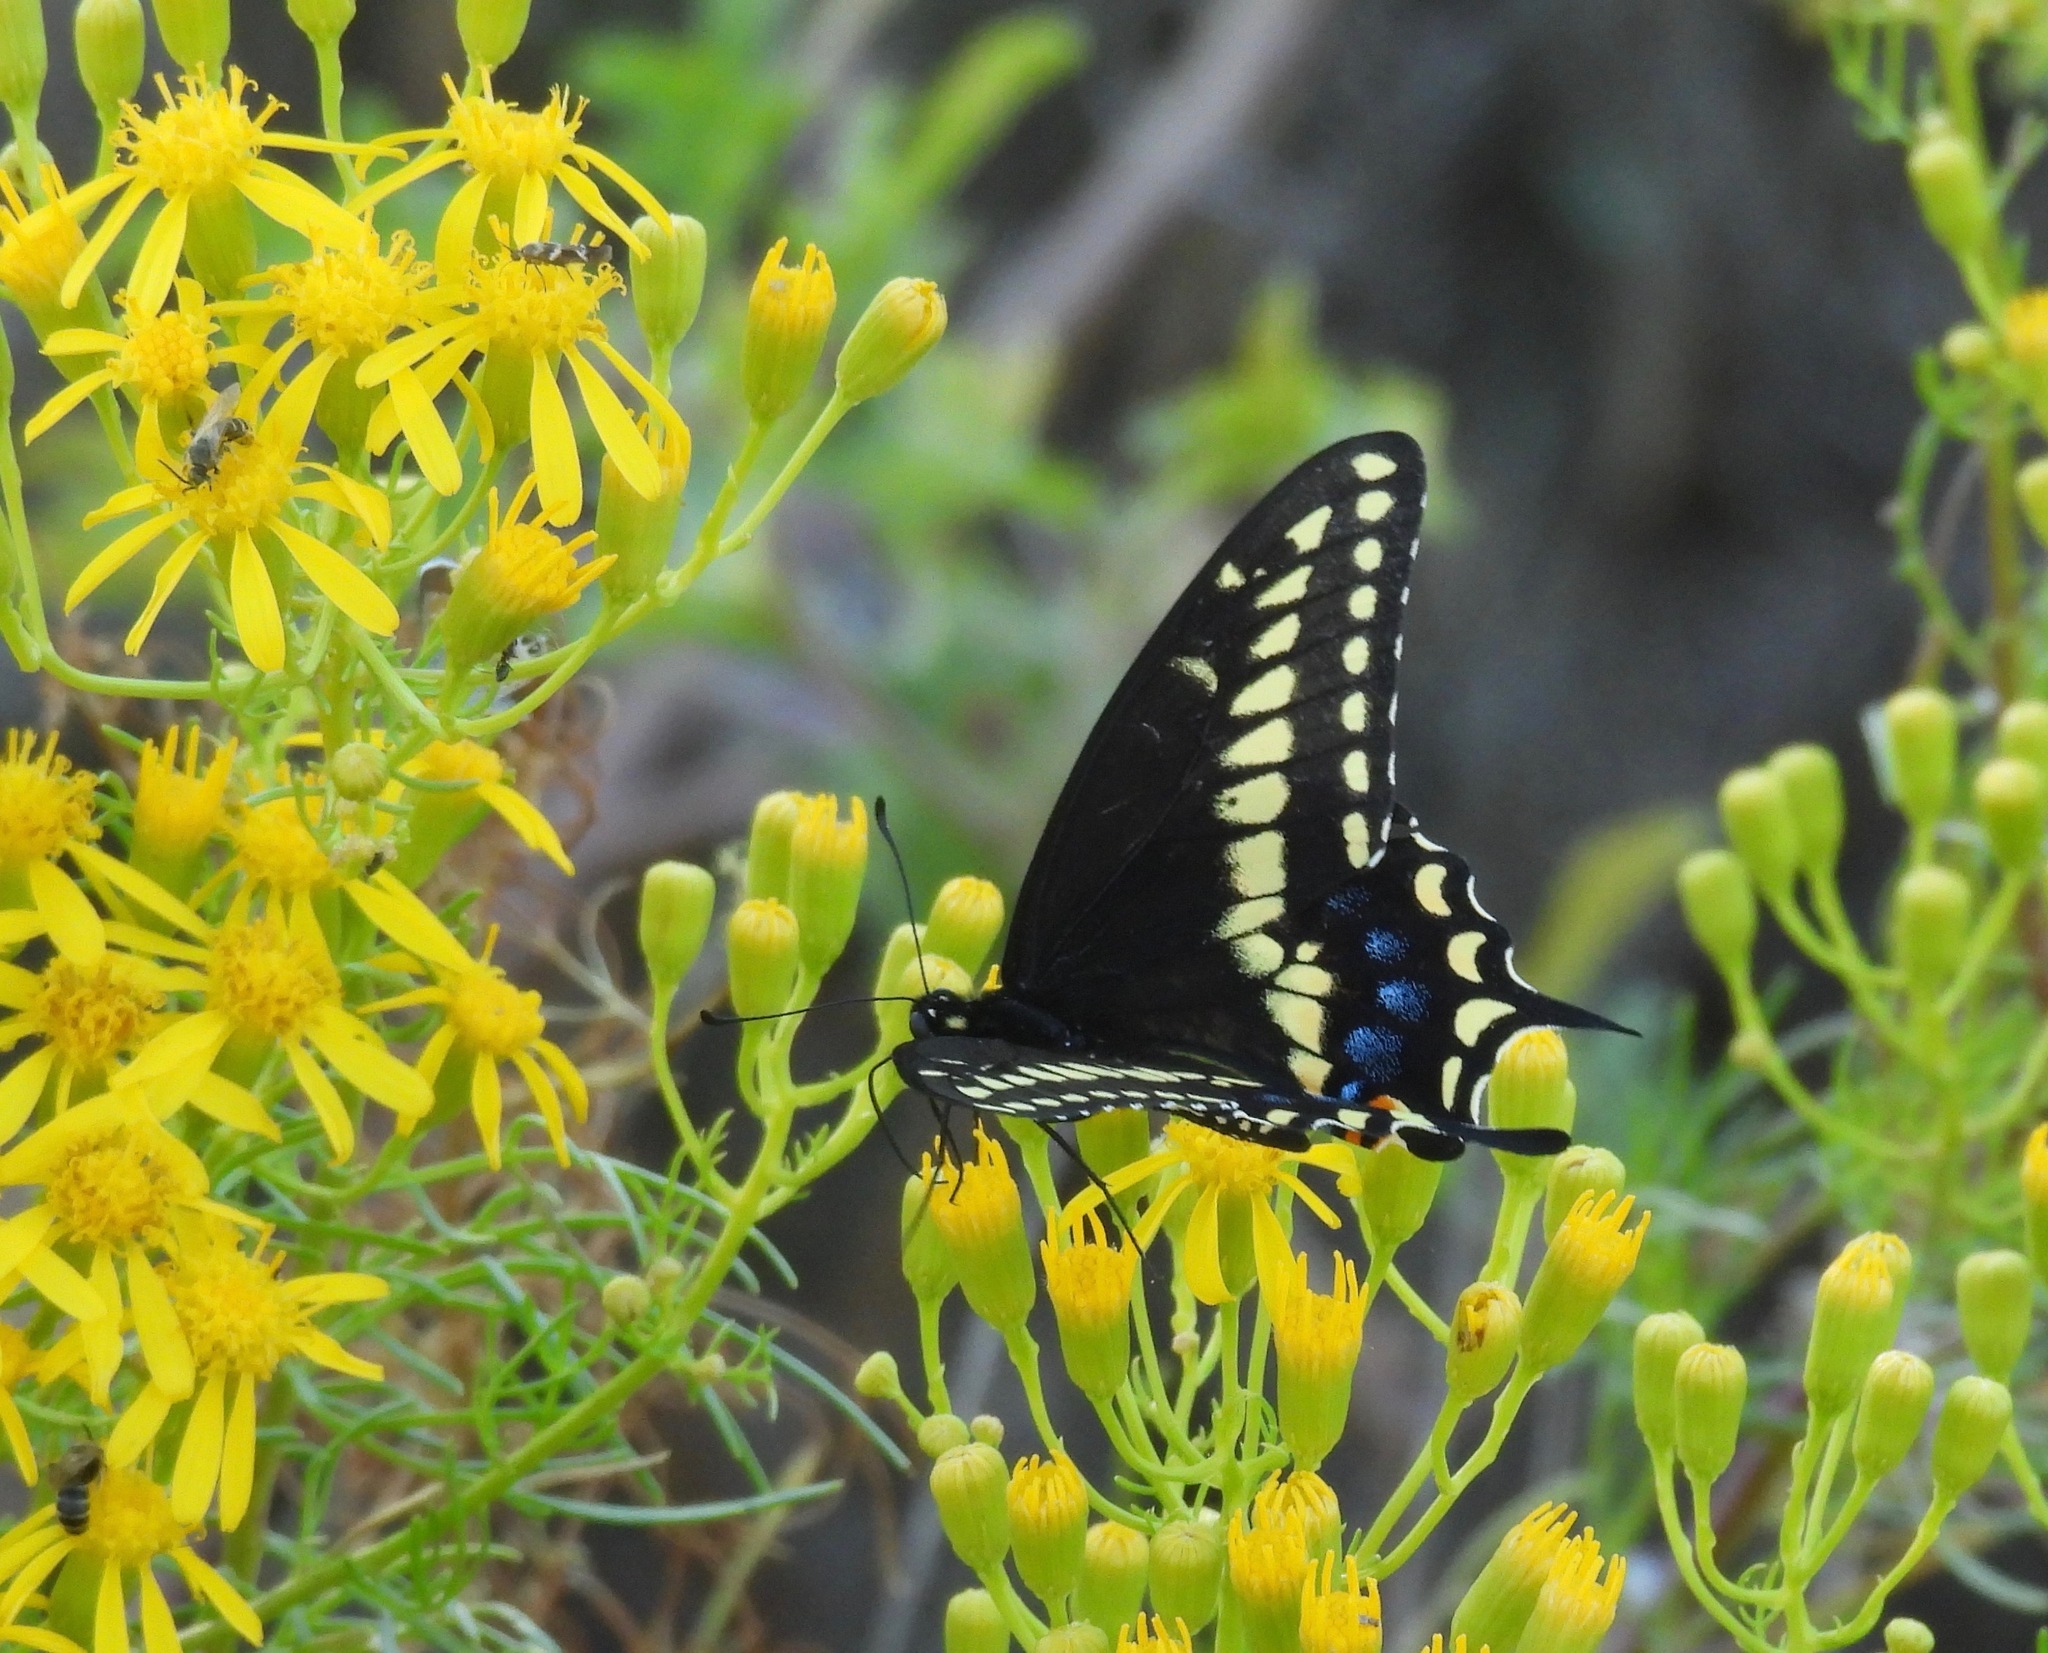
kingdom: Animalia
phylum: Arthropoda
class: Insecta
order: Lepidoptera
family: Papilionidae
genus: Papilio
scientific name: Papilio polyxenes
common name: Black swallowtail
